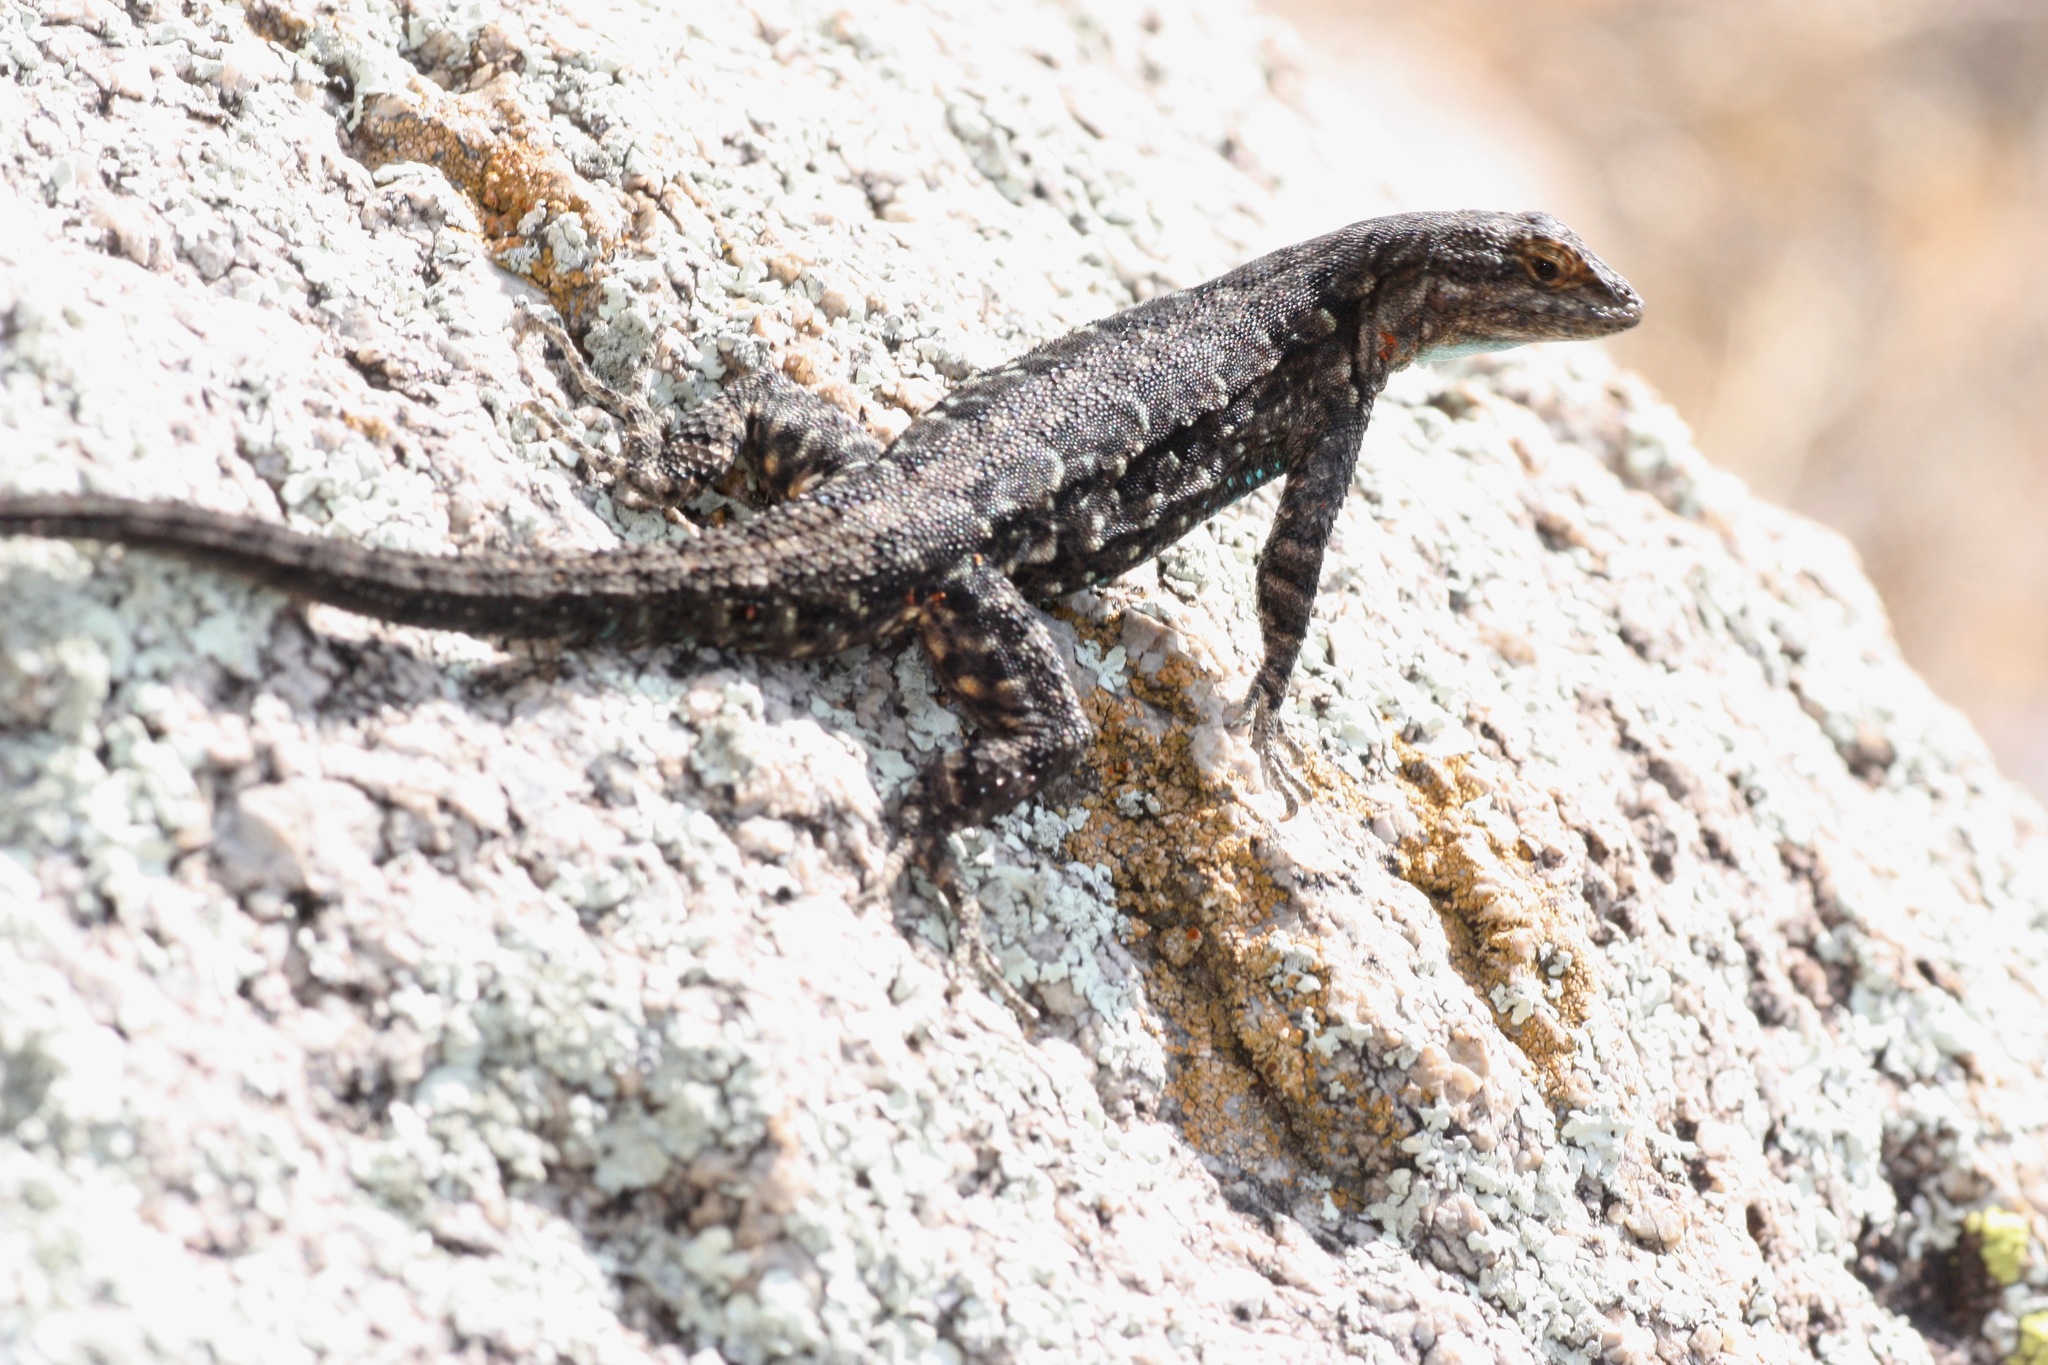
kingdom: Animalia
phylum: Chordata
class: Squamata
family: Phrynosomatidae
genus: Urosaurus
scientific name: Urosaurus ornatus
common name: Ornate tree lizard
